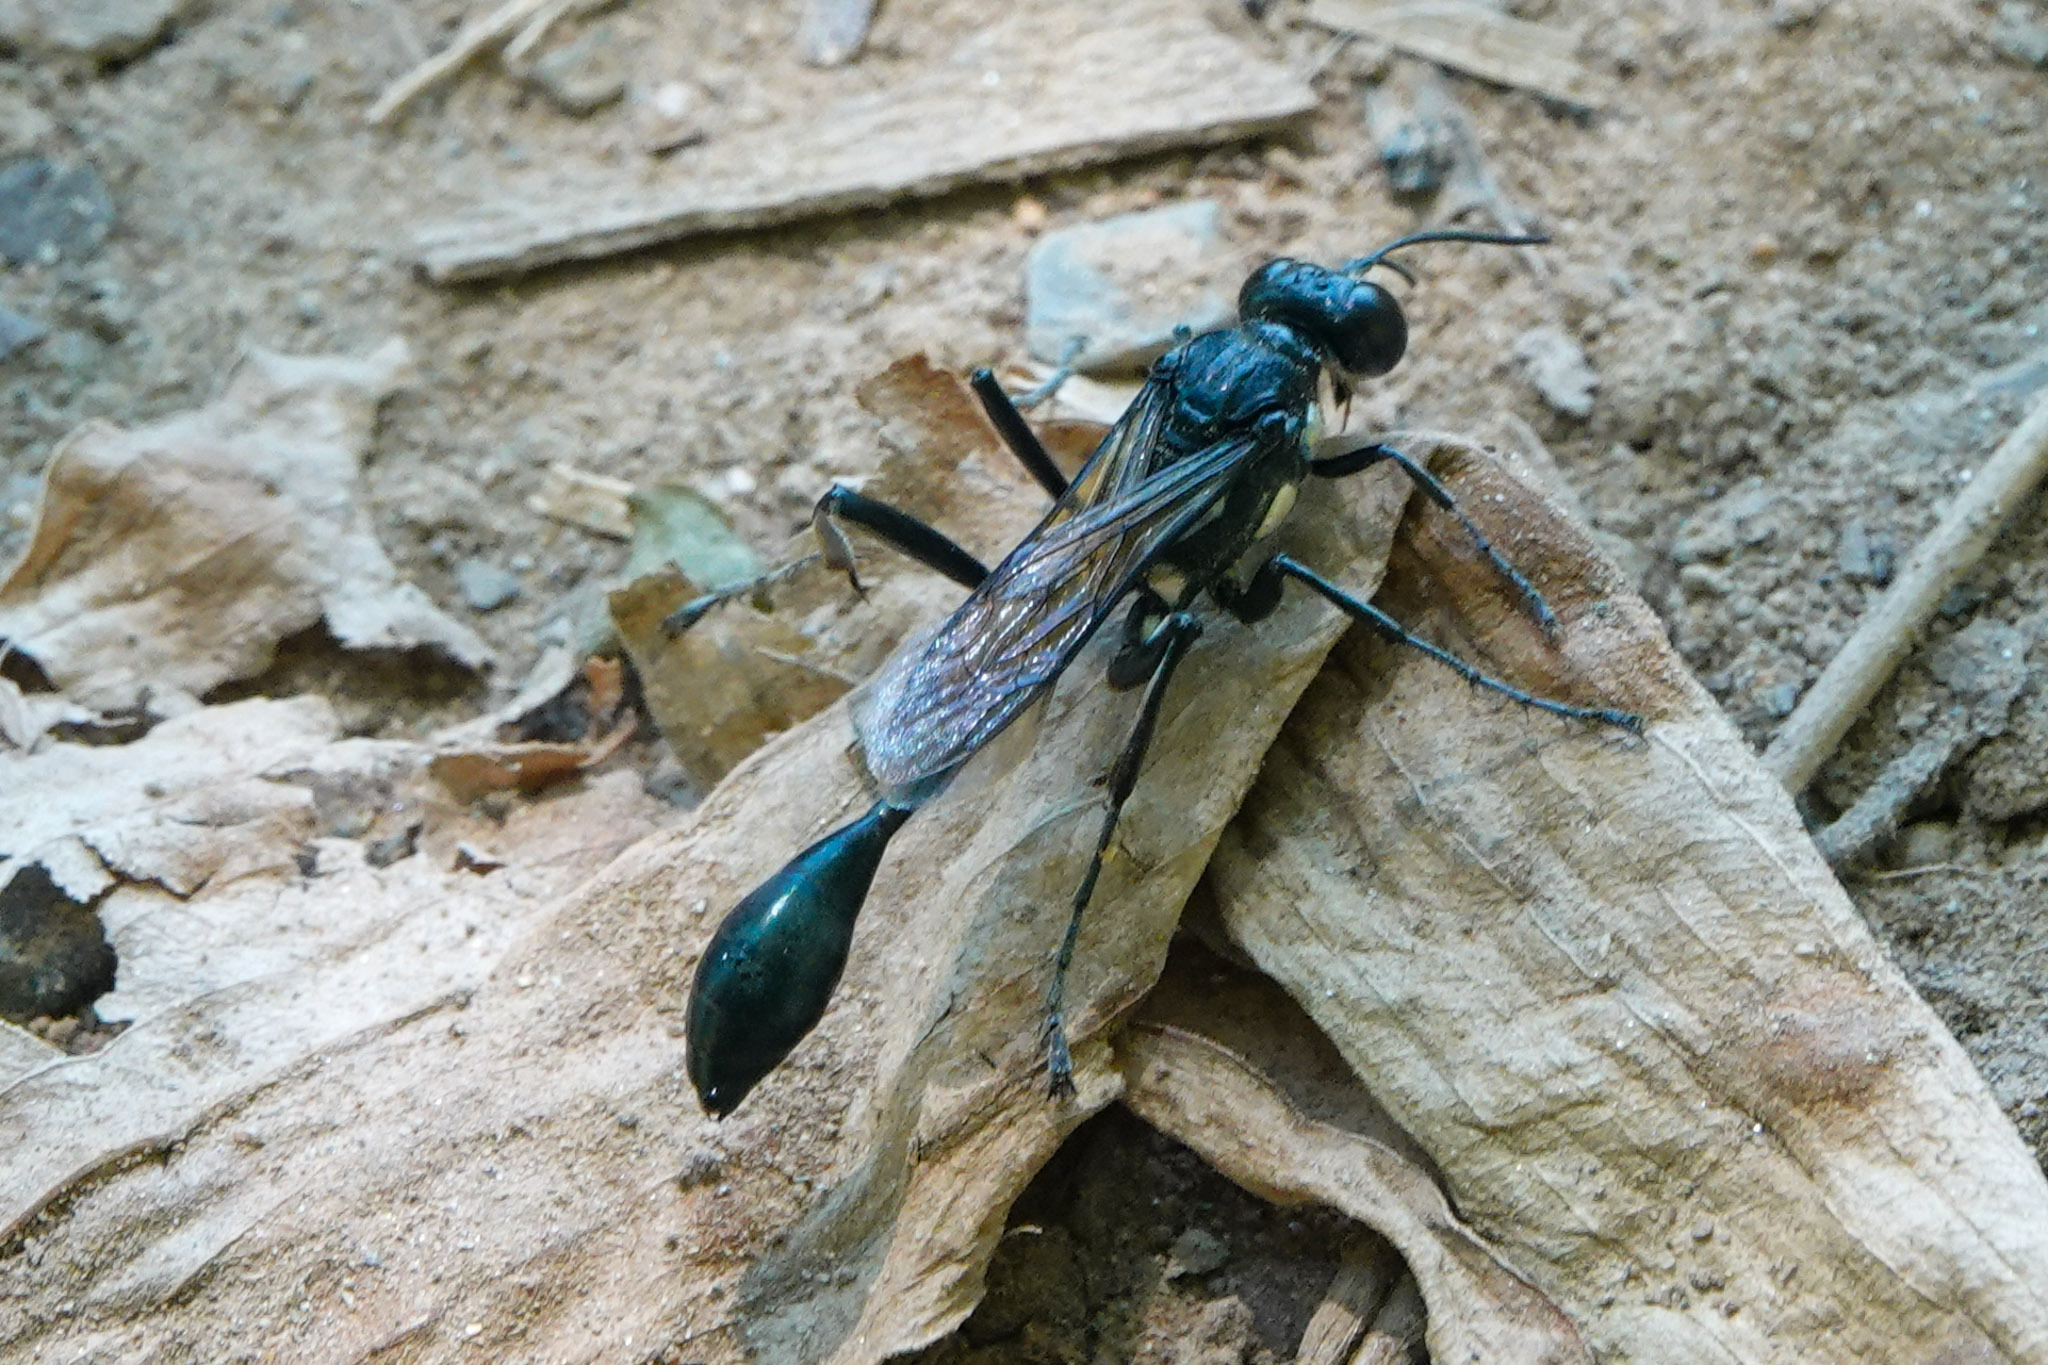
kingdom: Animalia
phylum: Arthropoda
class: Insecta
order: Hymenoptera
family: Sphecidae
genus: Eremnophila
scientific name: Eremnophila aureonotata
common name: Gold-marked thread-waisted wasp
